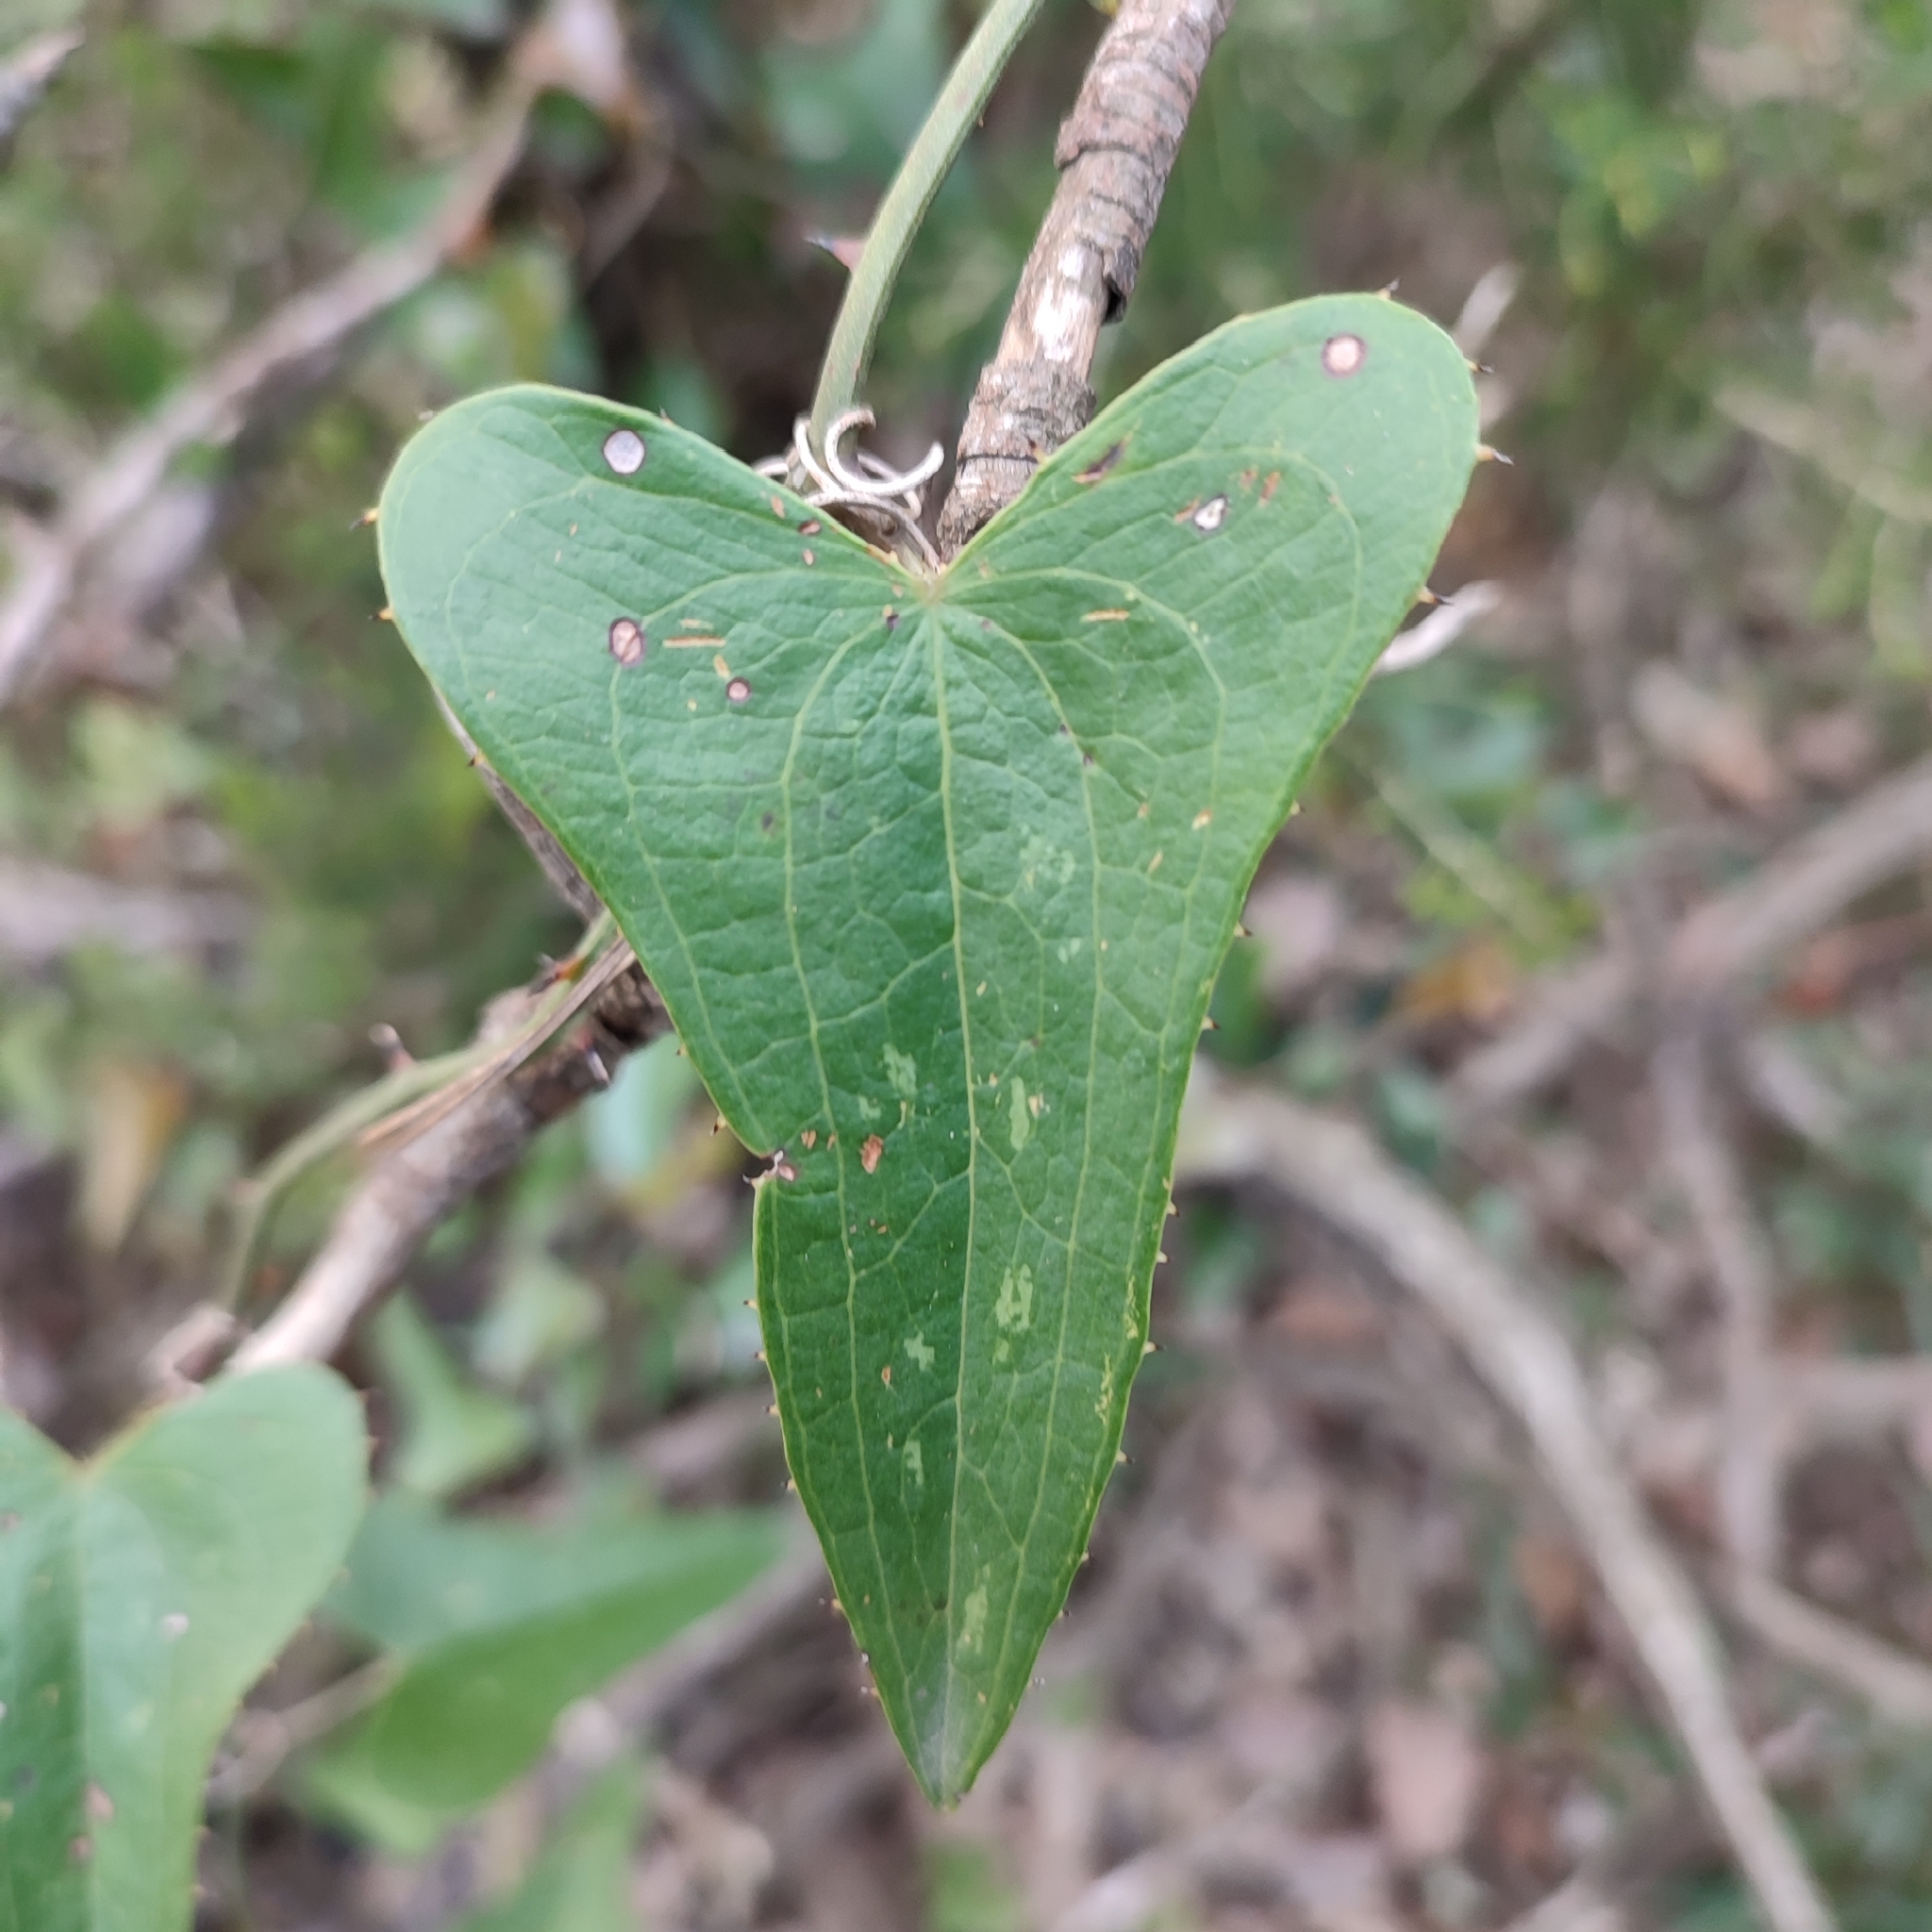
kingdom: Plantae
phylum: Tracheophyta
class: Liliopsida
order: Liliales
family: Smilacaceae
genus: Smilax
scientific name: Smilax aspera
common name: Common smilax
